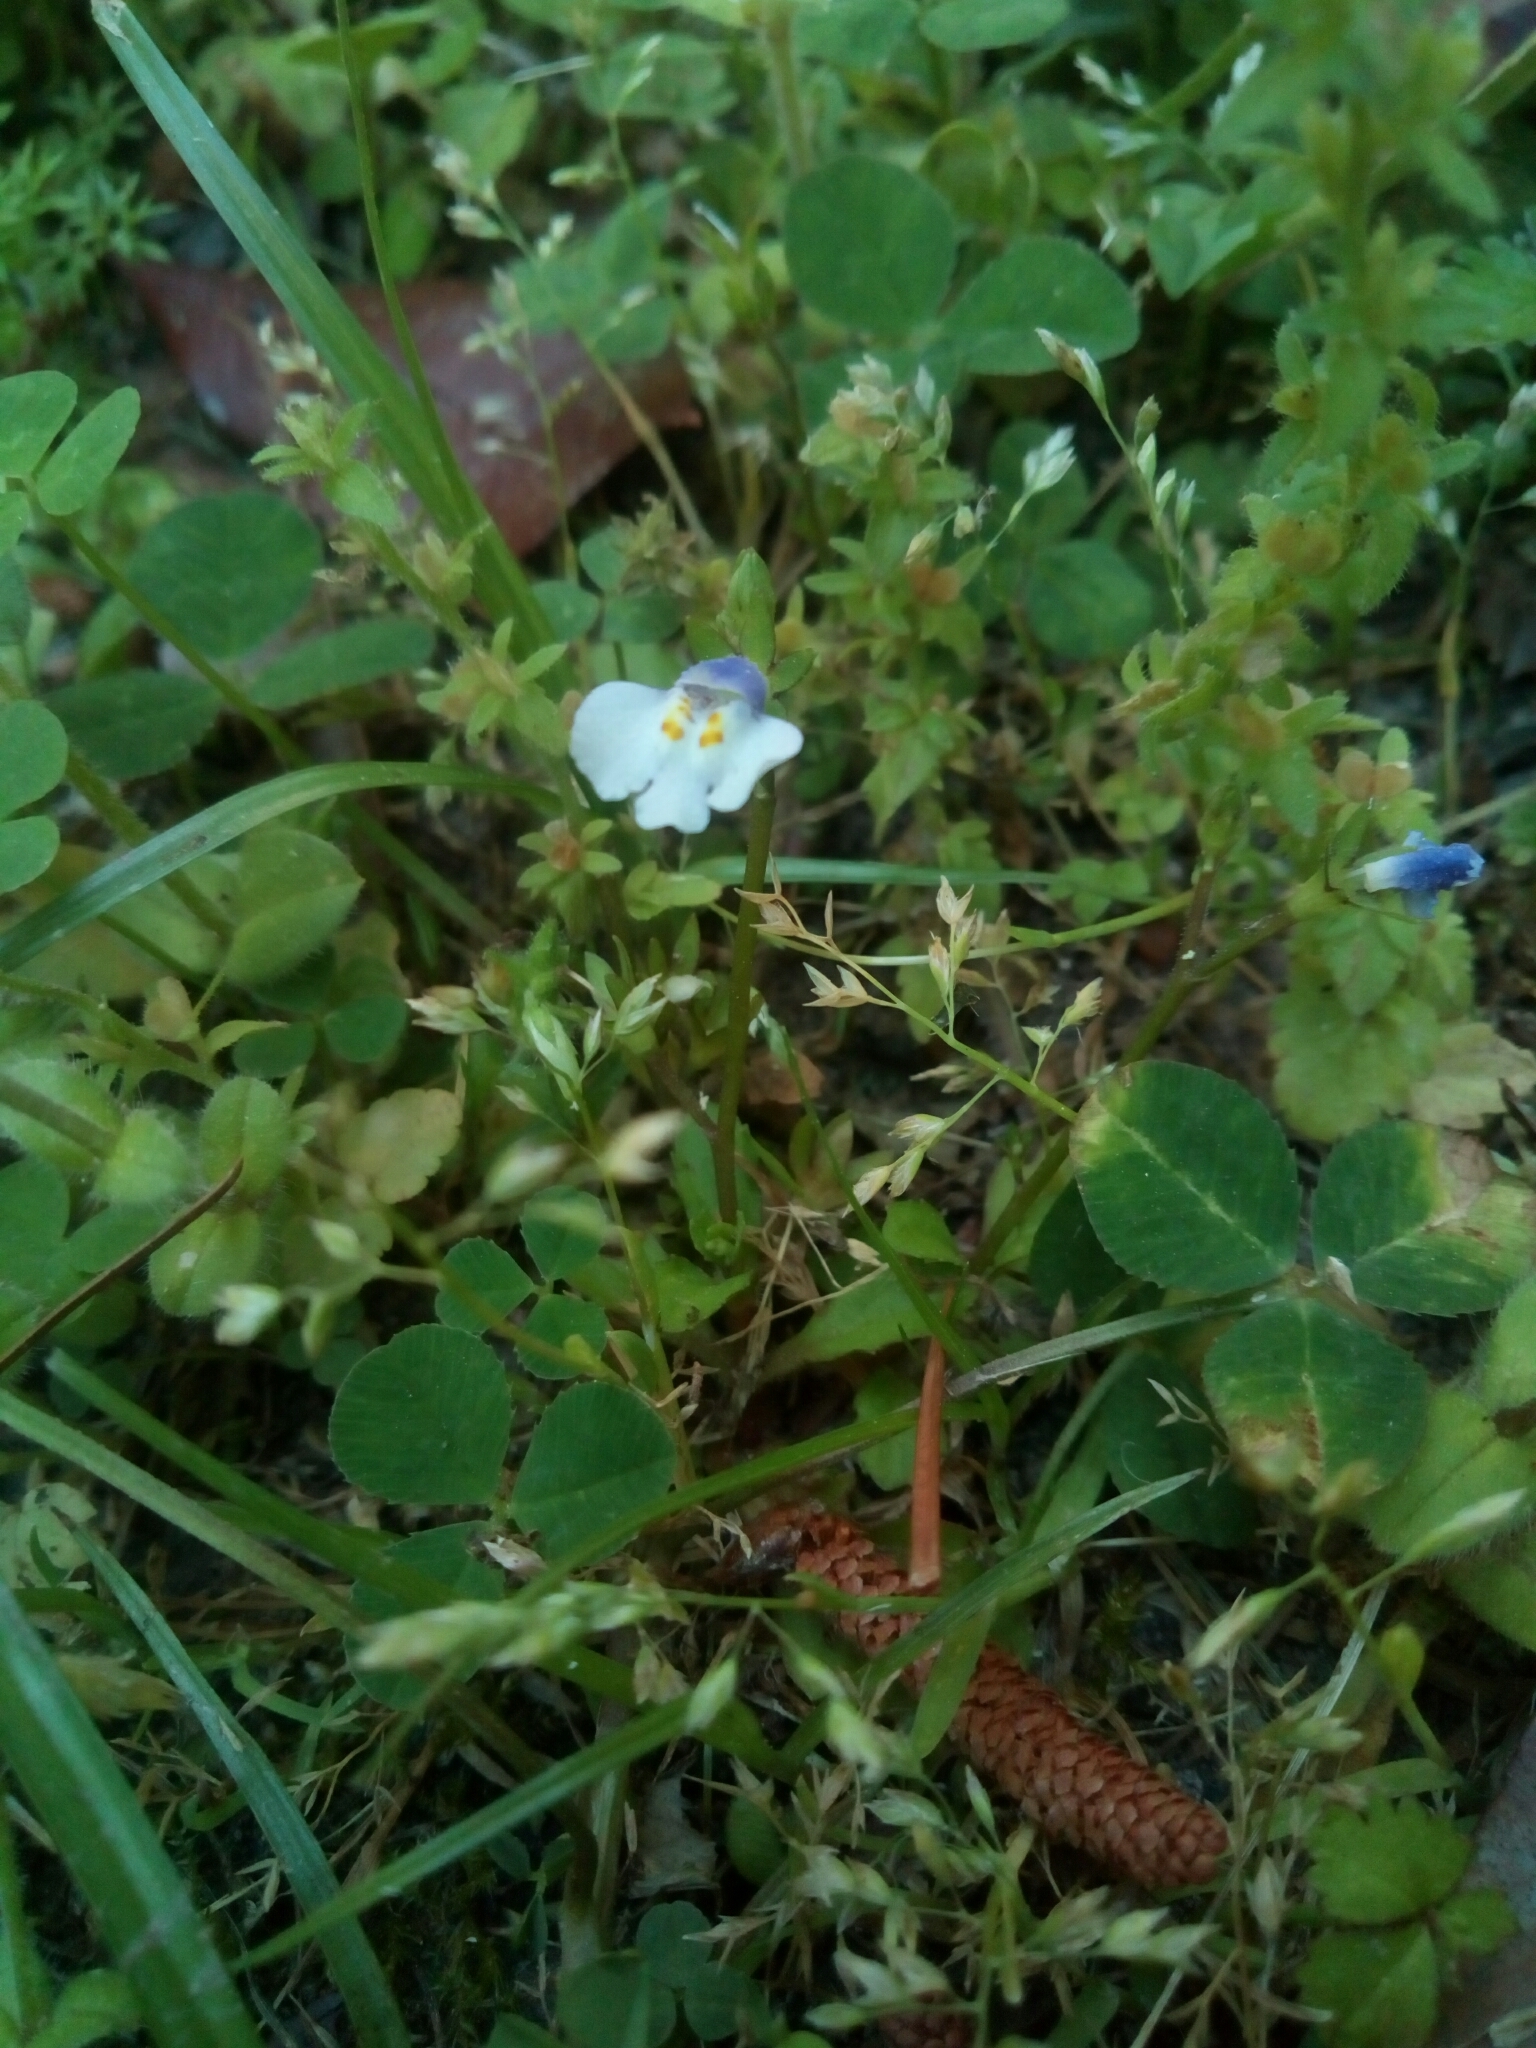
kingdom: Plantae
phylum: Tracheophyta
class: Magnoliopsida
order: Lamiales
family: Mazaceae
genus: Mazus
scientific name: Mazus pumilus
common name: Japanese mazus
